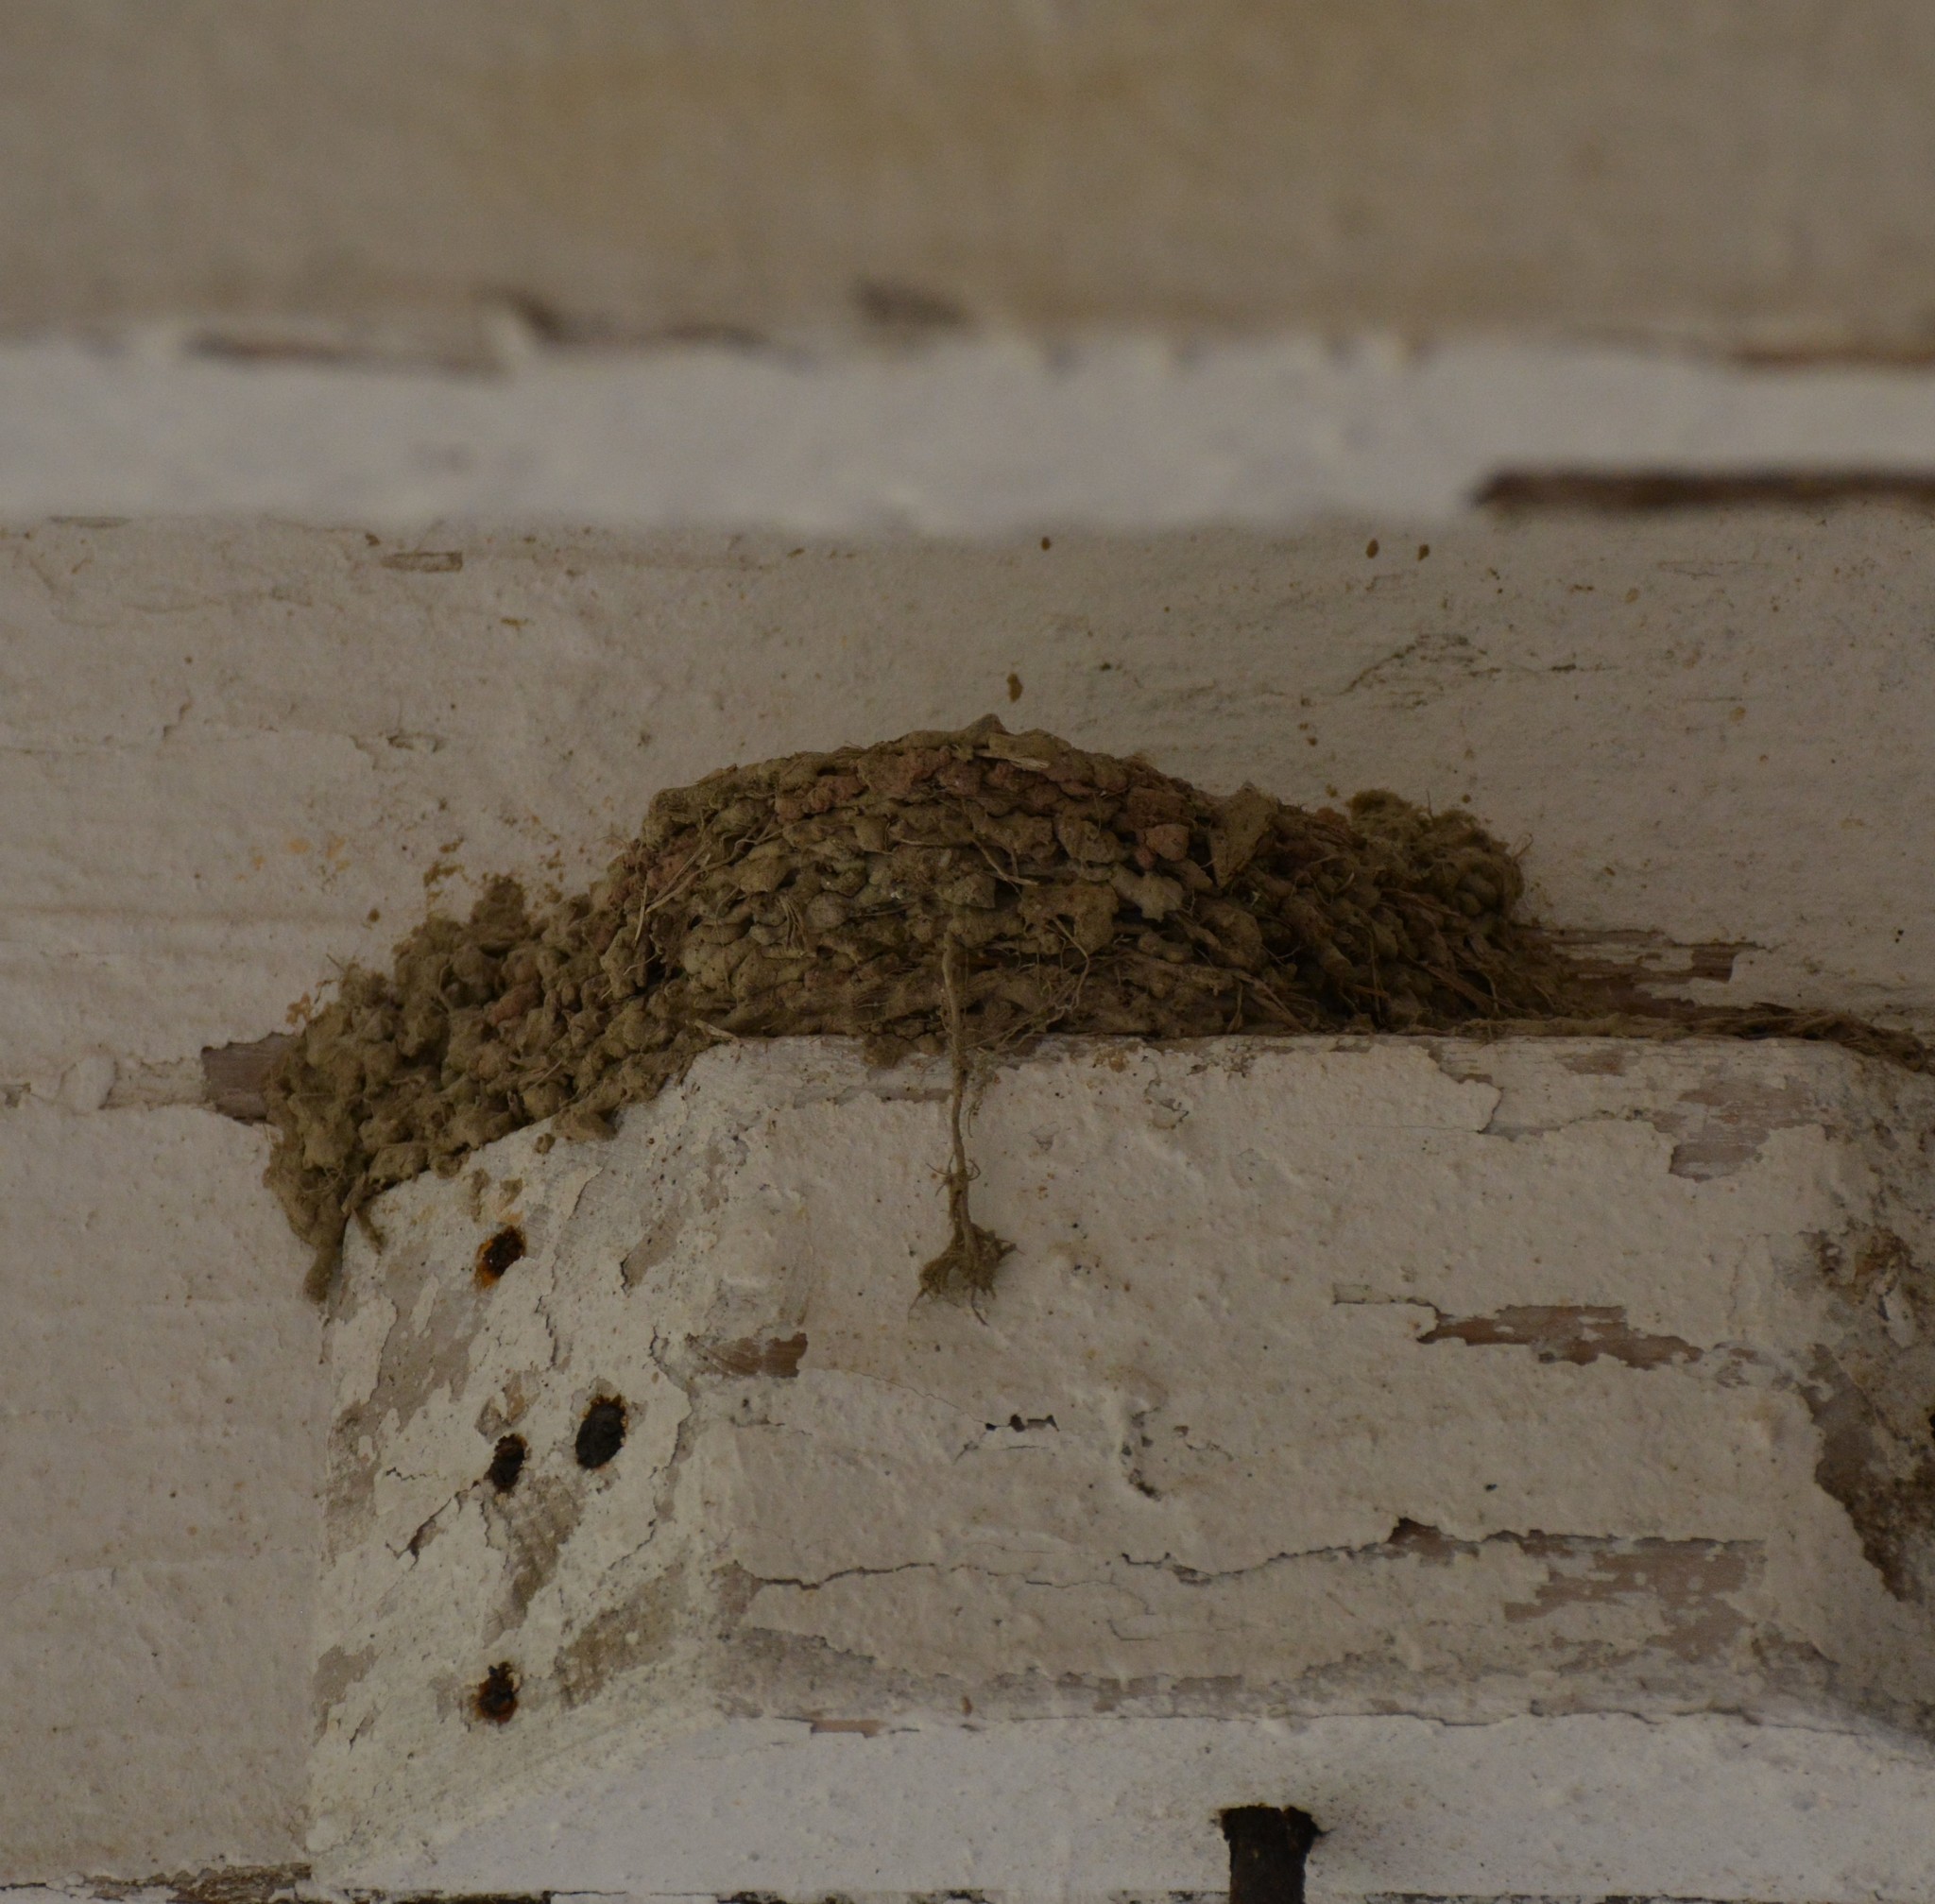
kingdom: Animalia
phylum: Chordata
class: Aves
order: Passeriformes
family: Hirundinidae
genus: Hirundo
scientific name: Hirundo rustica
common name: Barn swallow
